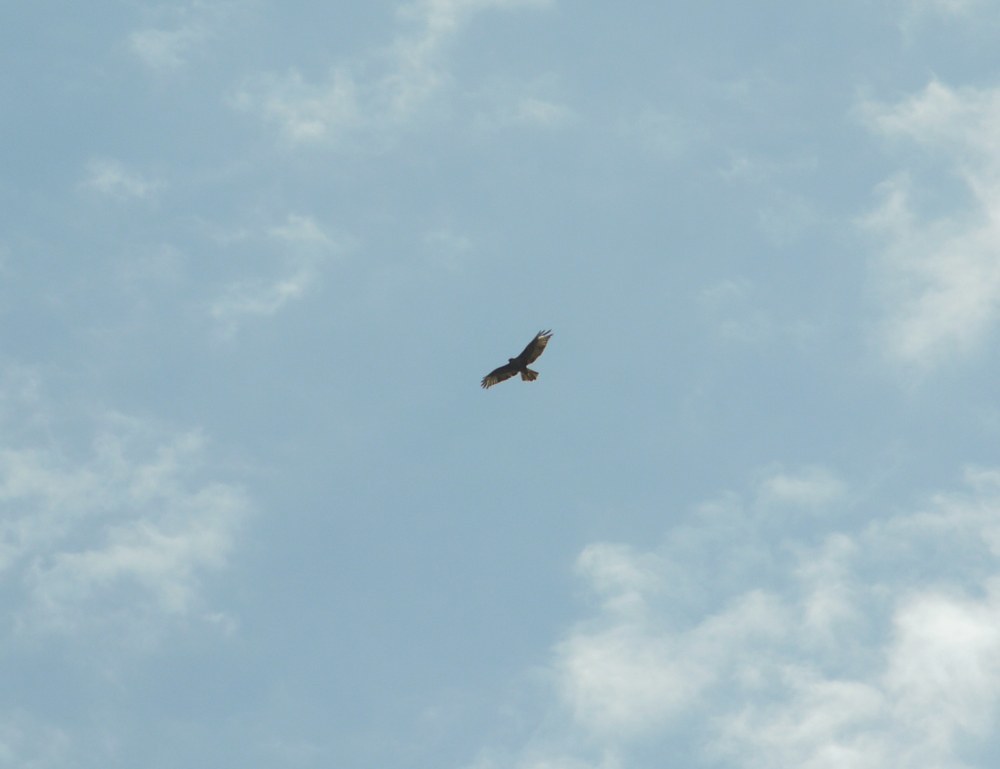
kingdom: Animalia
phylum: Chordata
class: Aves
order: Accipitriformes
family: Accipitridae
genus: Buteo
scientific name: Buteo rufinus
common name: Long-legged buzzard
